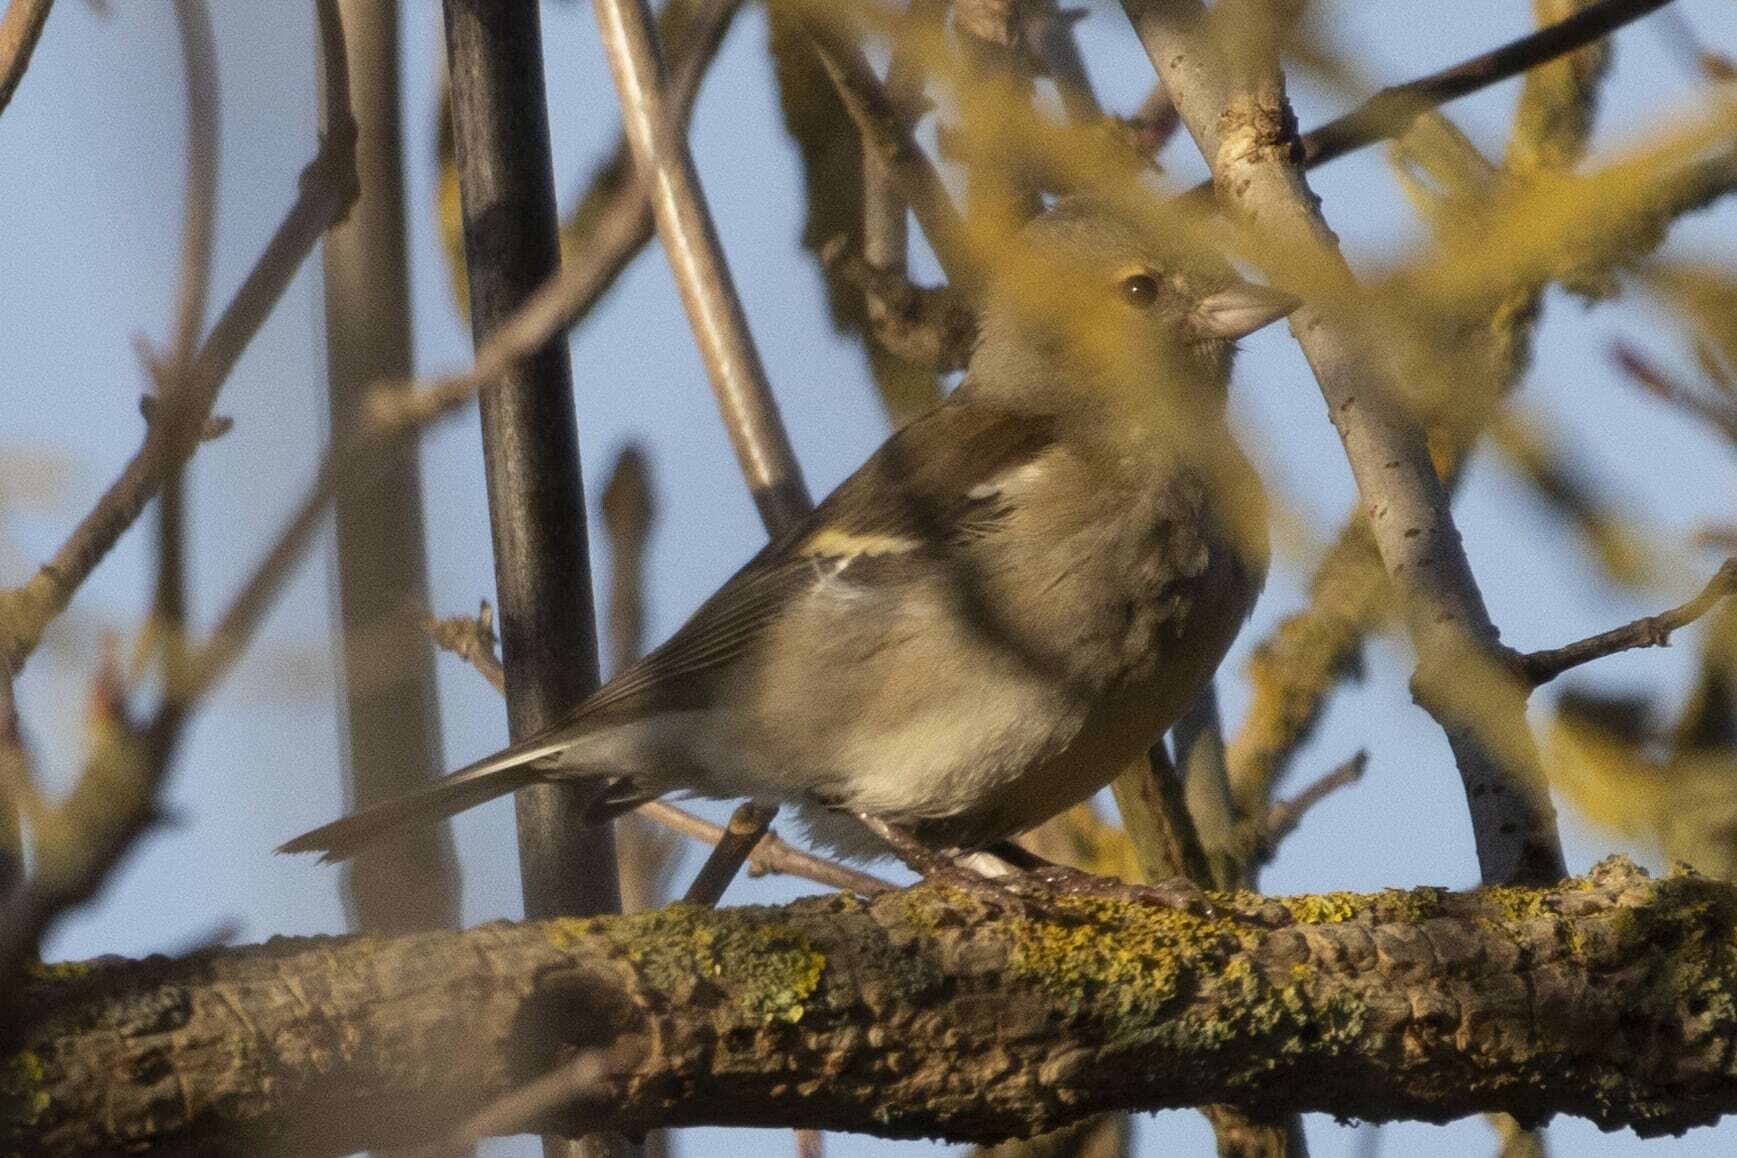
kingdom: Animalia
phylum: Chordata
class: Aves
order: Passeriformes
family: Fringillidae
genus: Fringilla
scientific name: Fringilla coelebs
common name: Common chaffinch
